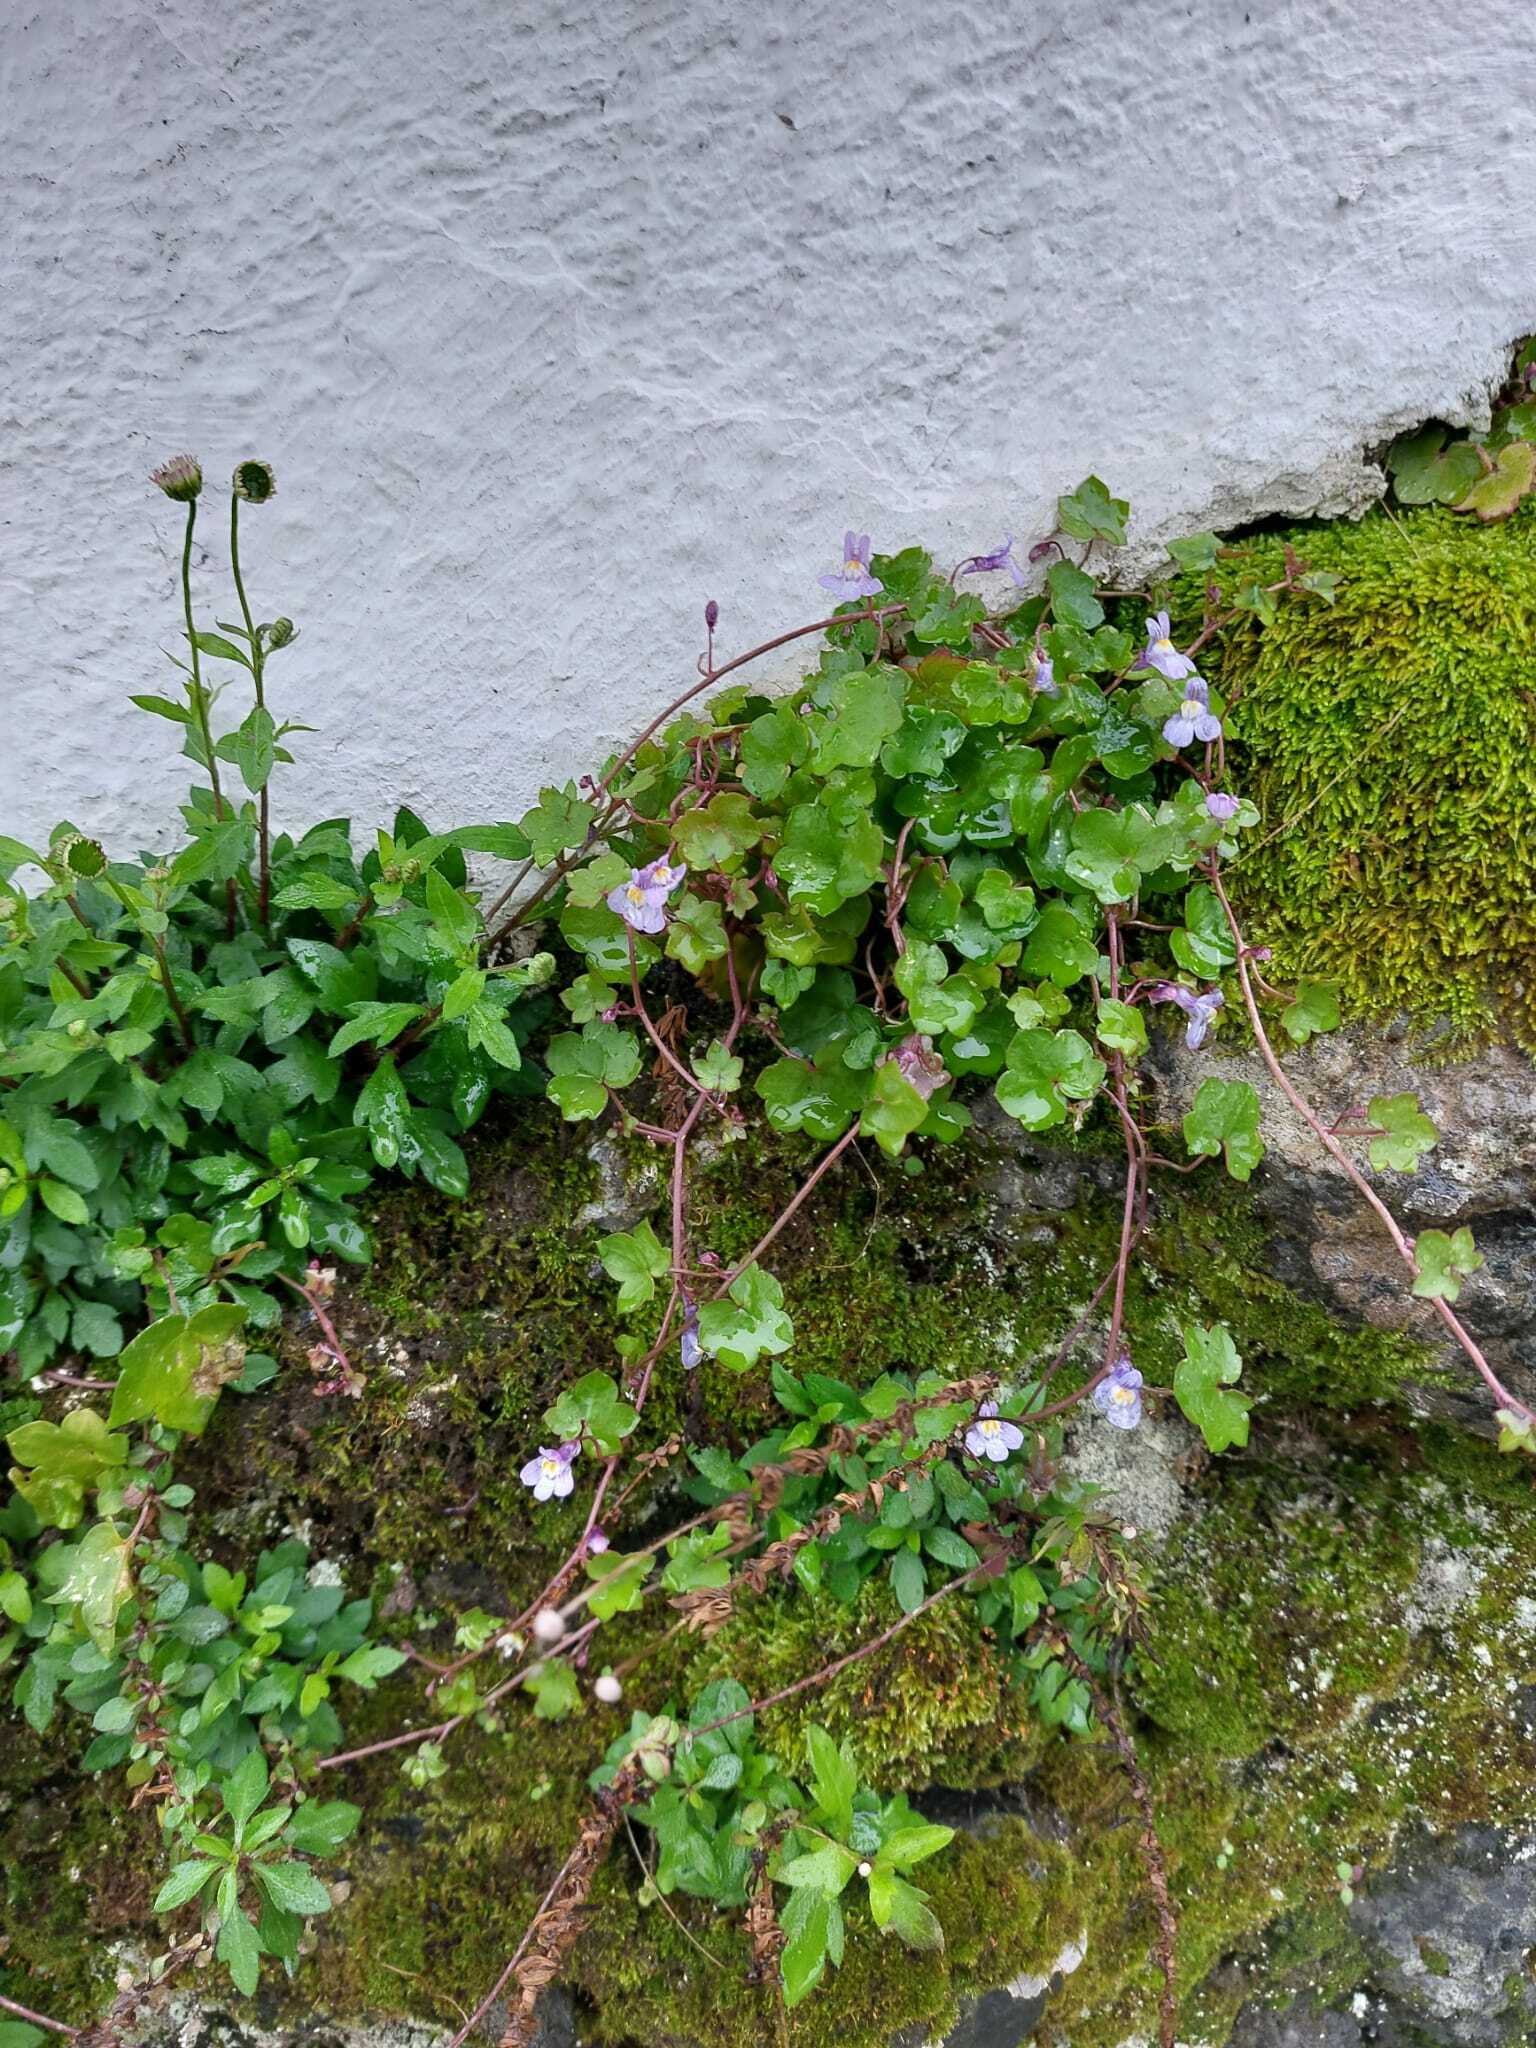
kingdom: Plantae
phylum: Tracheophyta
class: Magnoliopsida
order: Lamiales
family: Plantaginaceae
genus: Cymbalaria
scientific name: Cymbalaria muralis
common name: Ivy-leaved toadflax
